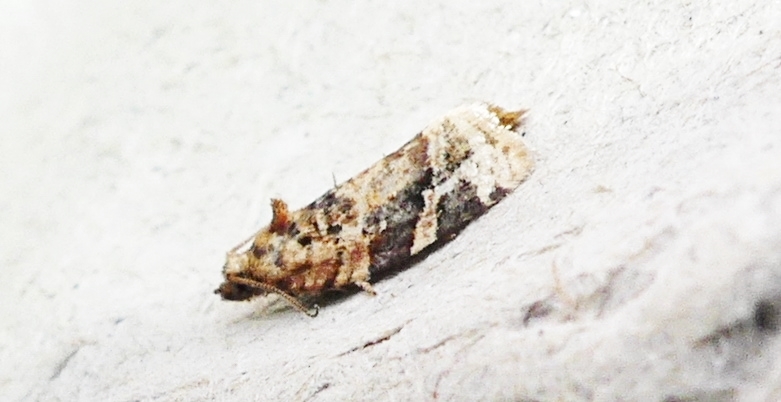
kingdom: Animalia
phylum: Arthropoda
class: Insecta
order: Lepidoptera
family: Tortricidae
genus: Argyrotaenia
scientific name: Argyrotaenia velutinana
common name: Red-banded leafroller moth
